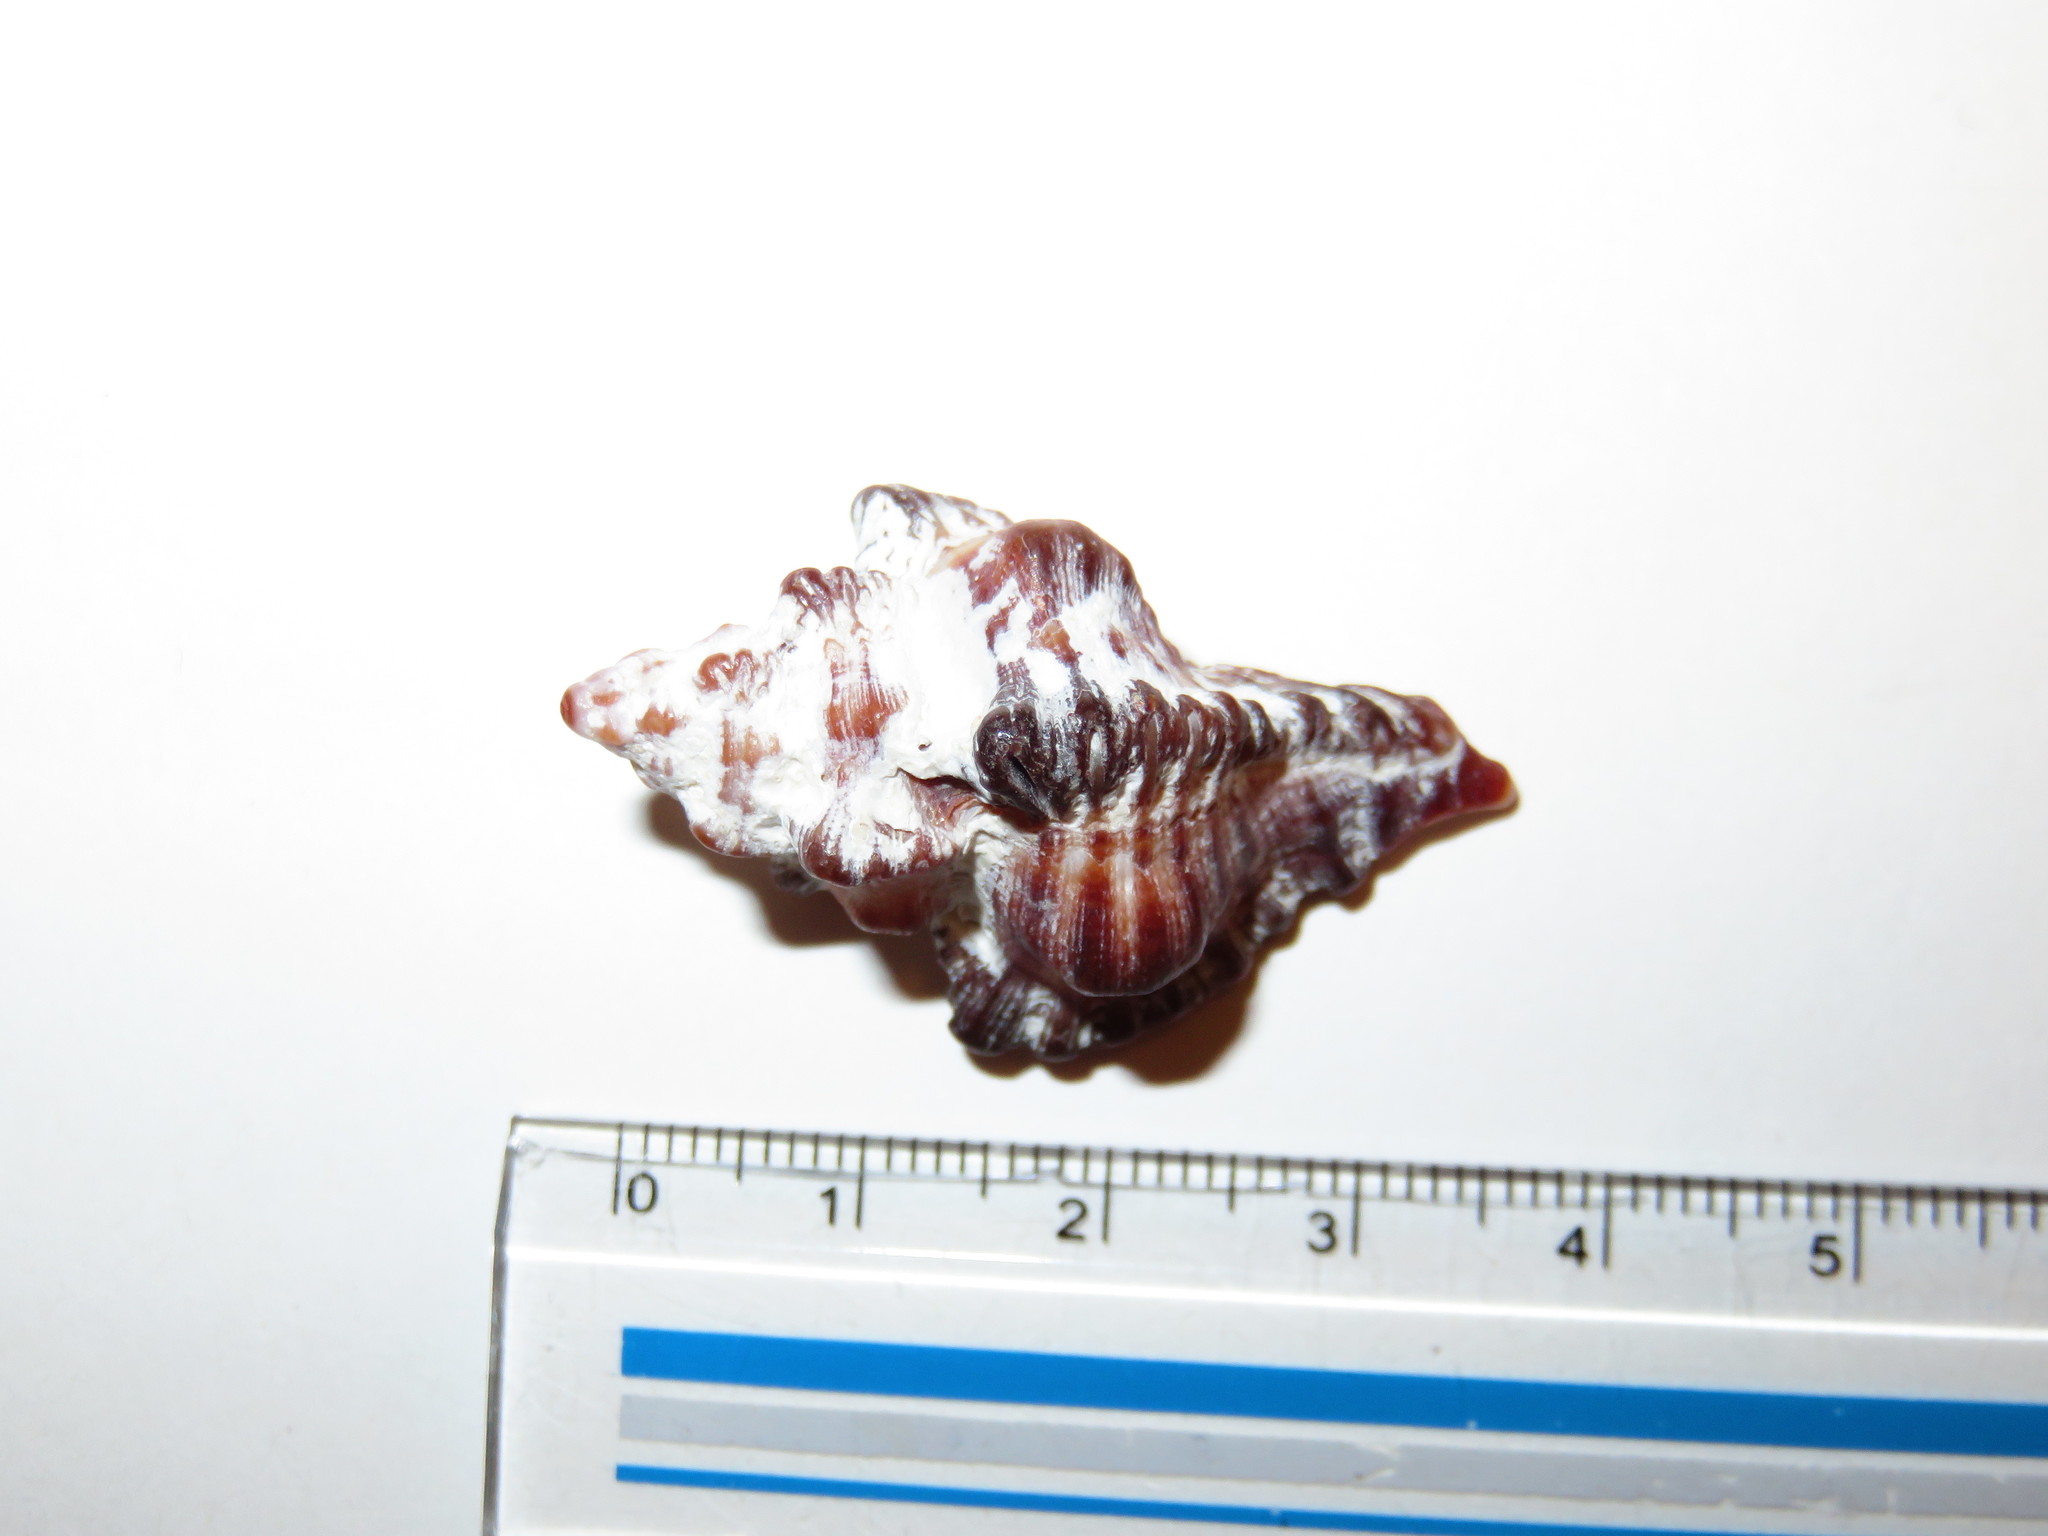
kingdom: Animalia
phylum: Mollusca
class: Gastropoda
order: Neogastropoda
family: Muricidae
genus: Chicoreus
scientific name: Chicoreus brunneus
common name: Adusta murex
